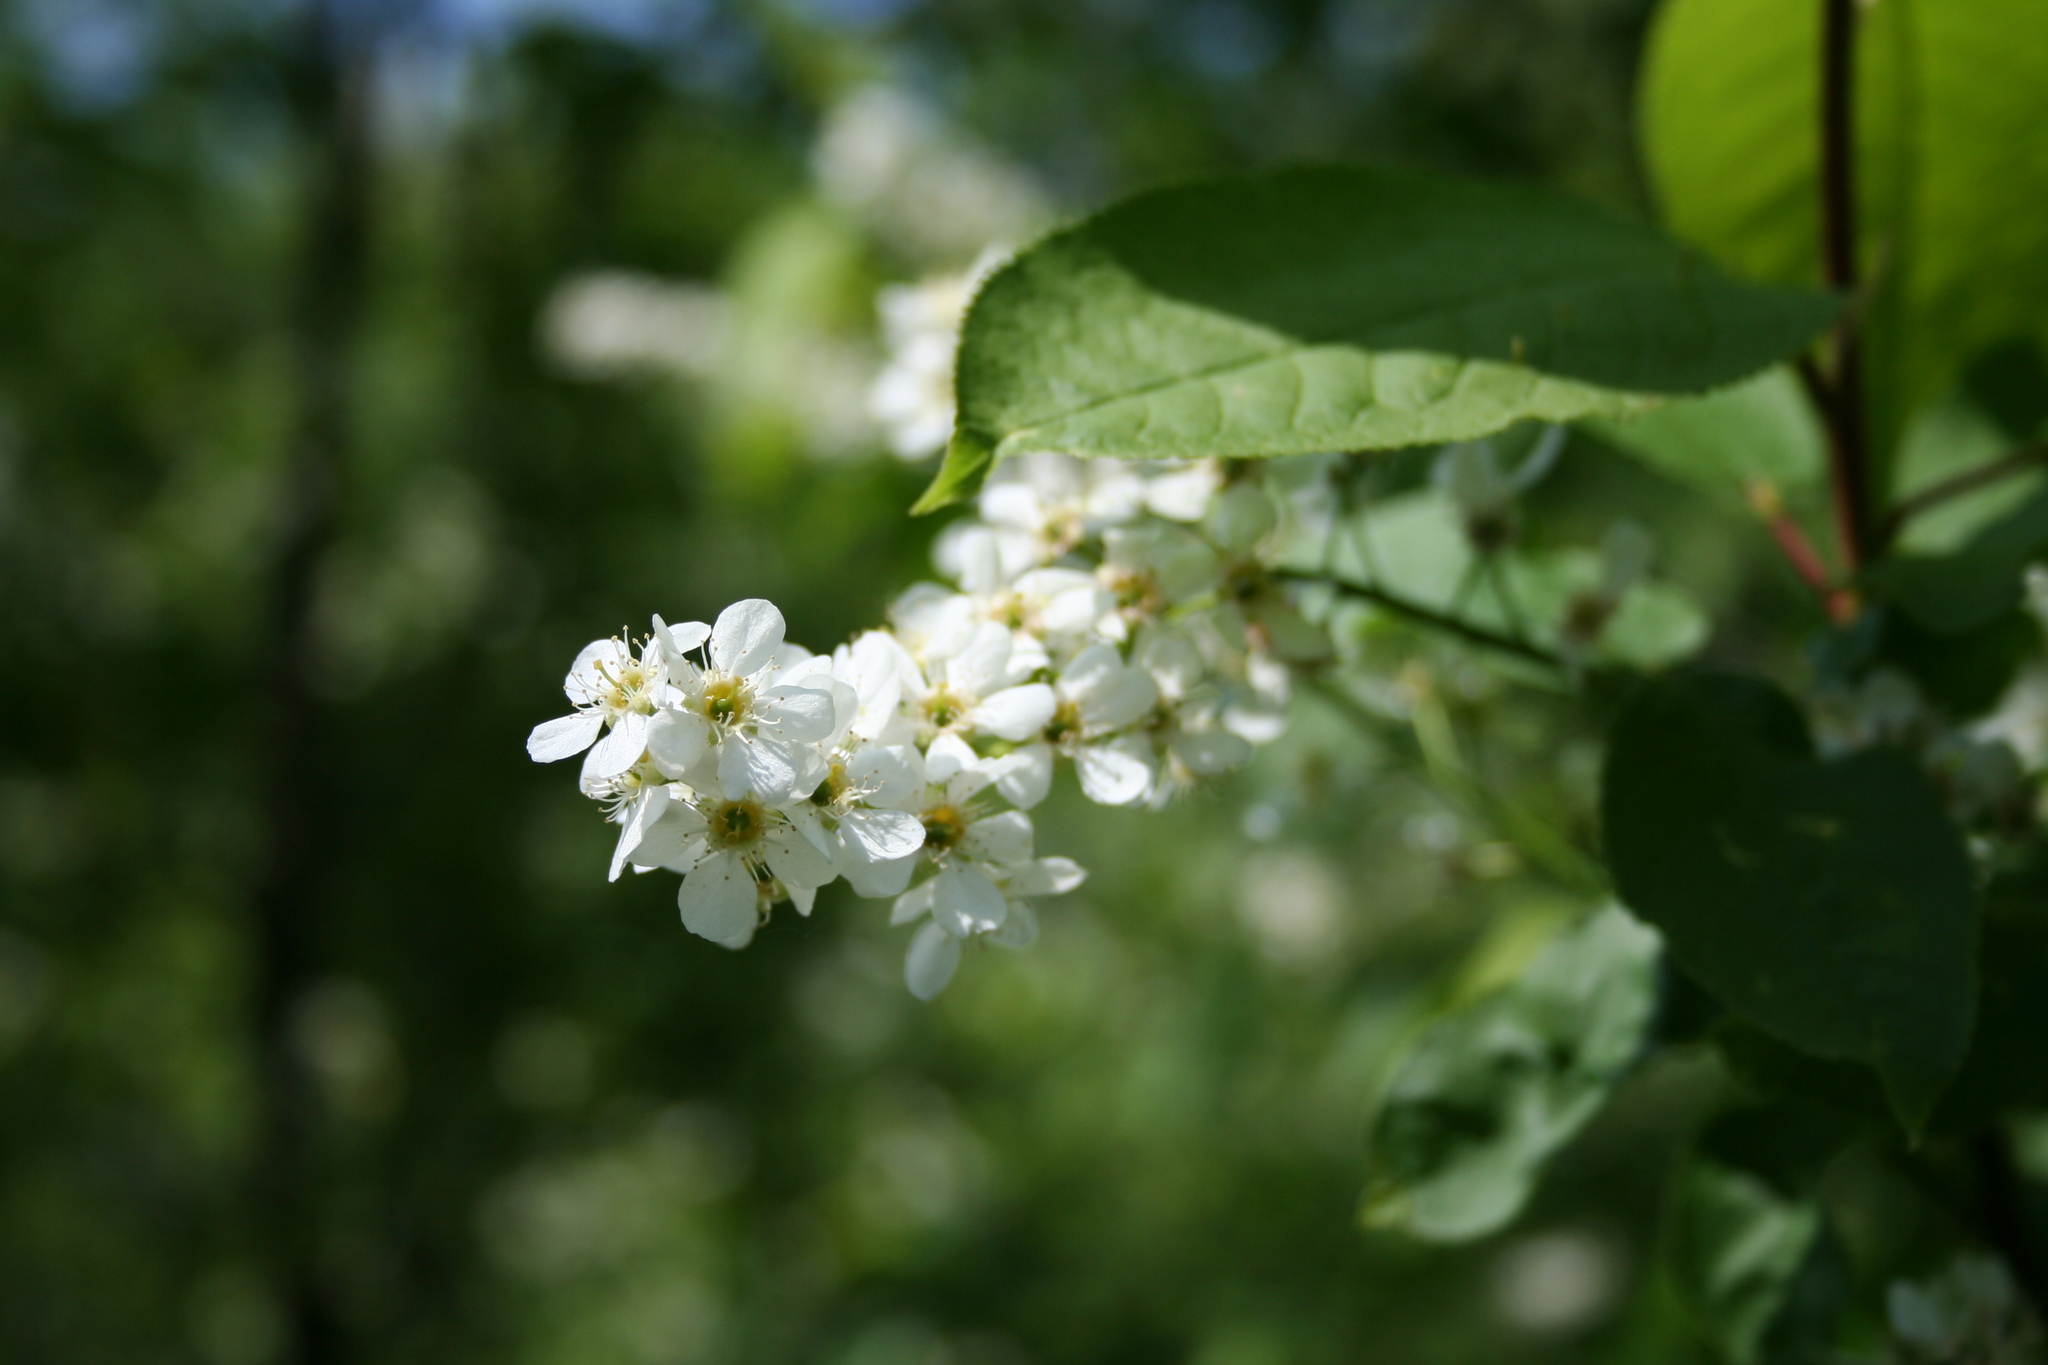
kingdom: Plantae
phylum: Tracheophyta
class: Magnoliopsida
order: Rosales
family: Rosaceae
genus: Prunus
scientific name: Prunus padus
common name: Bird cherry
